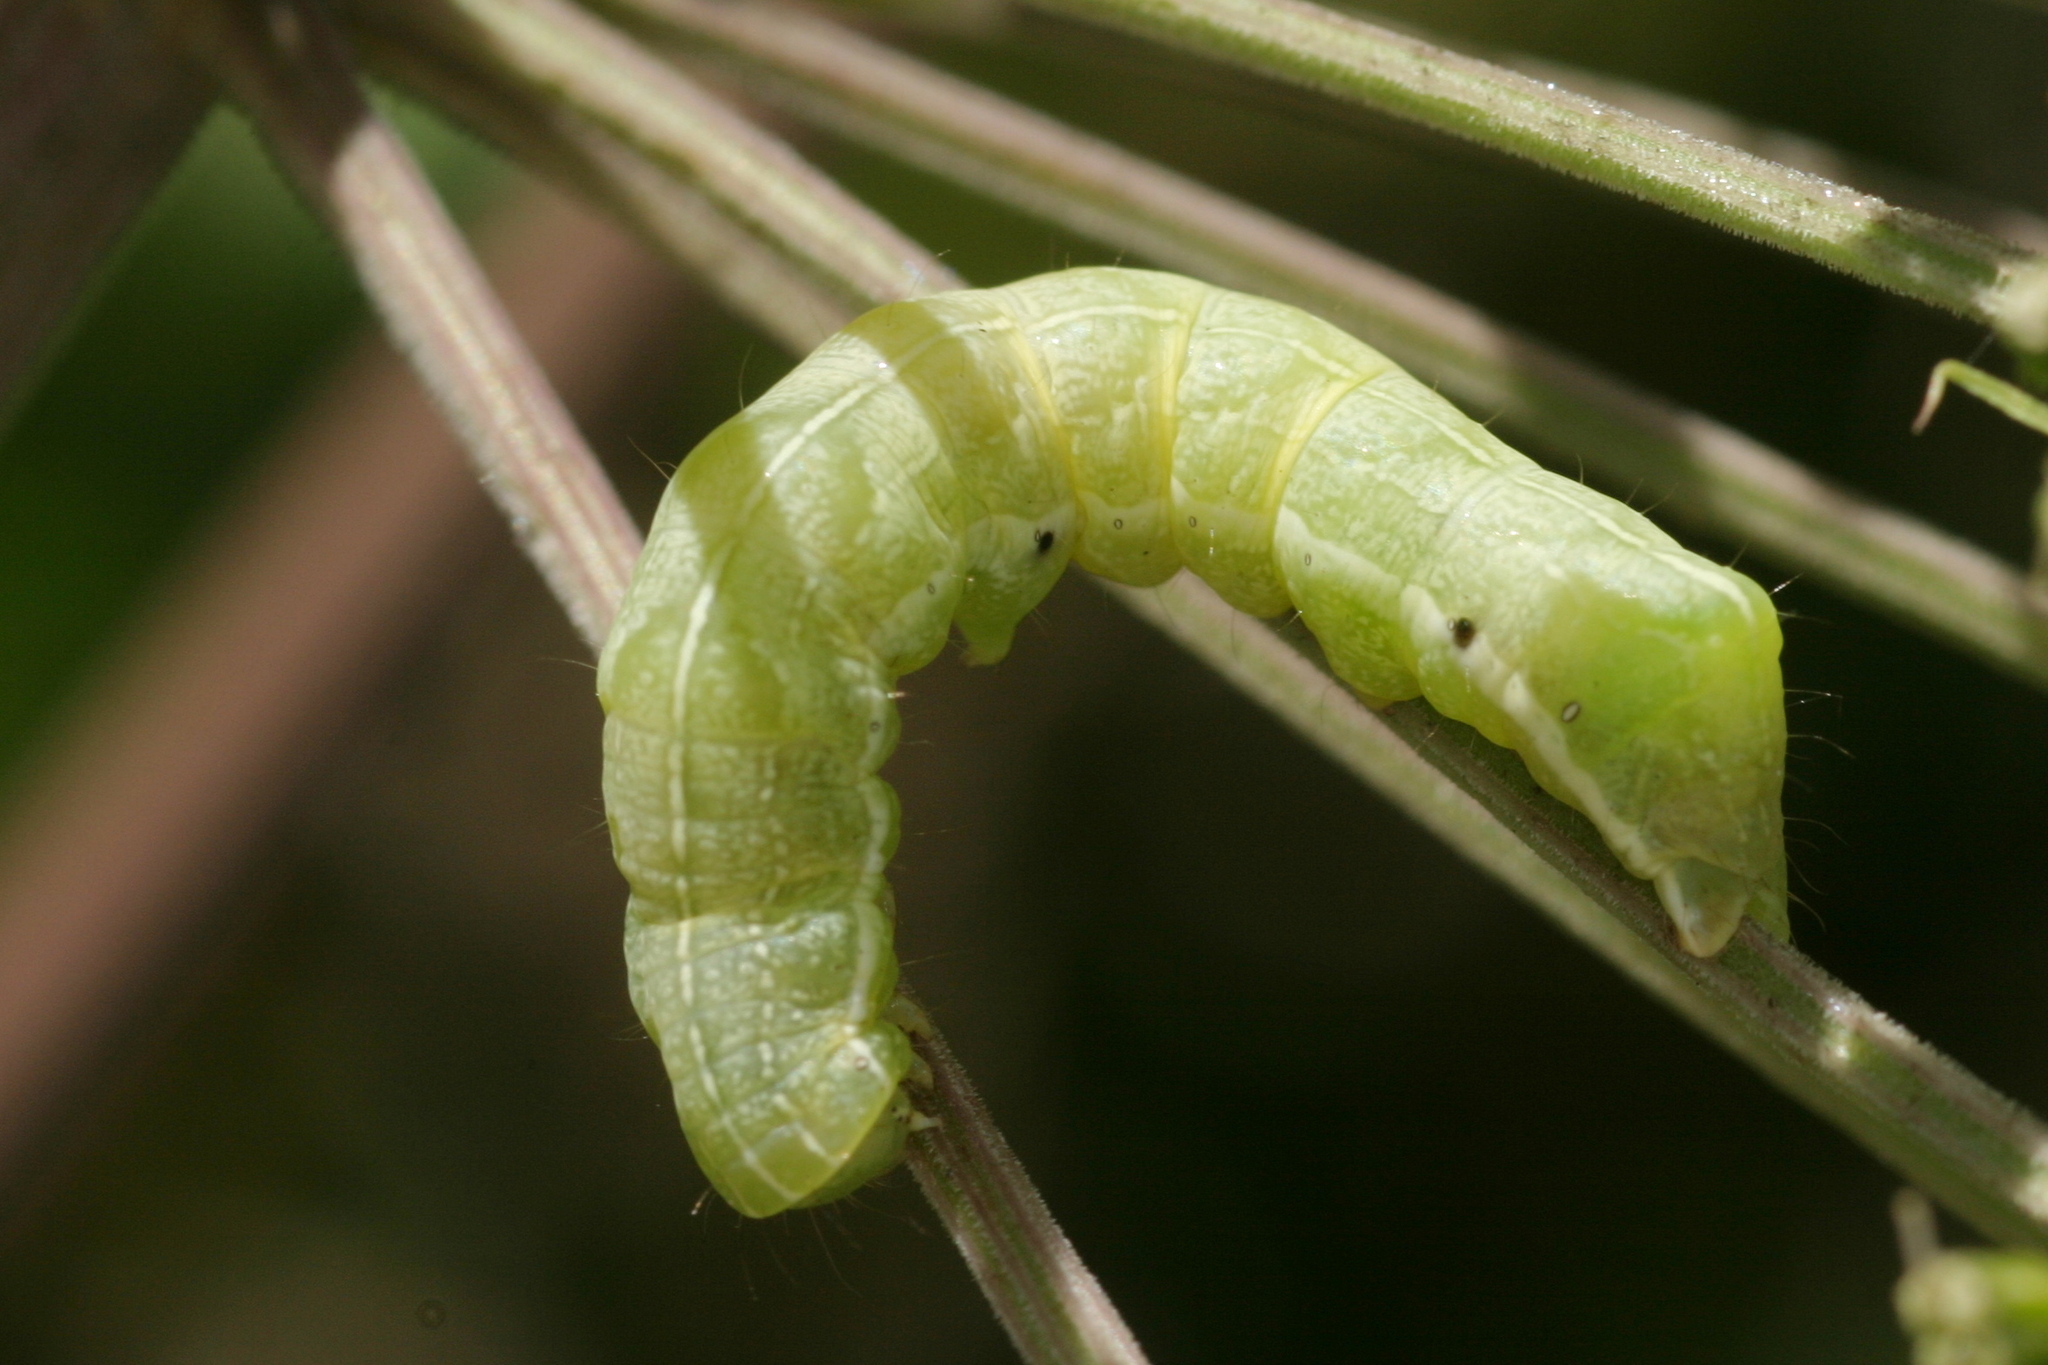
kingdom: Animalia
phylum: Arthropoda
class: Insecta
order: Lepidoptera
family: Noctuidae
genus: Melanchra
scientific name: Melanchra persicariae
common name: Dot moth
